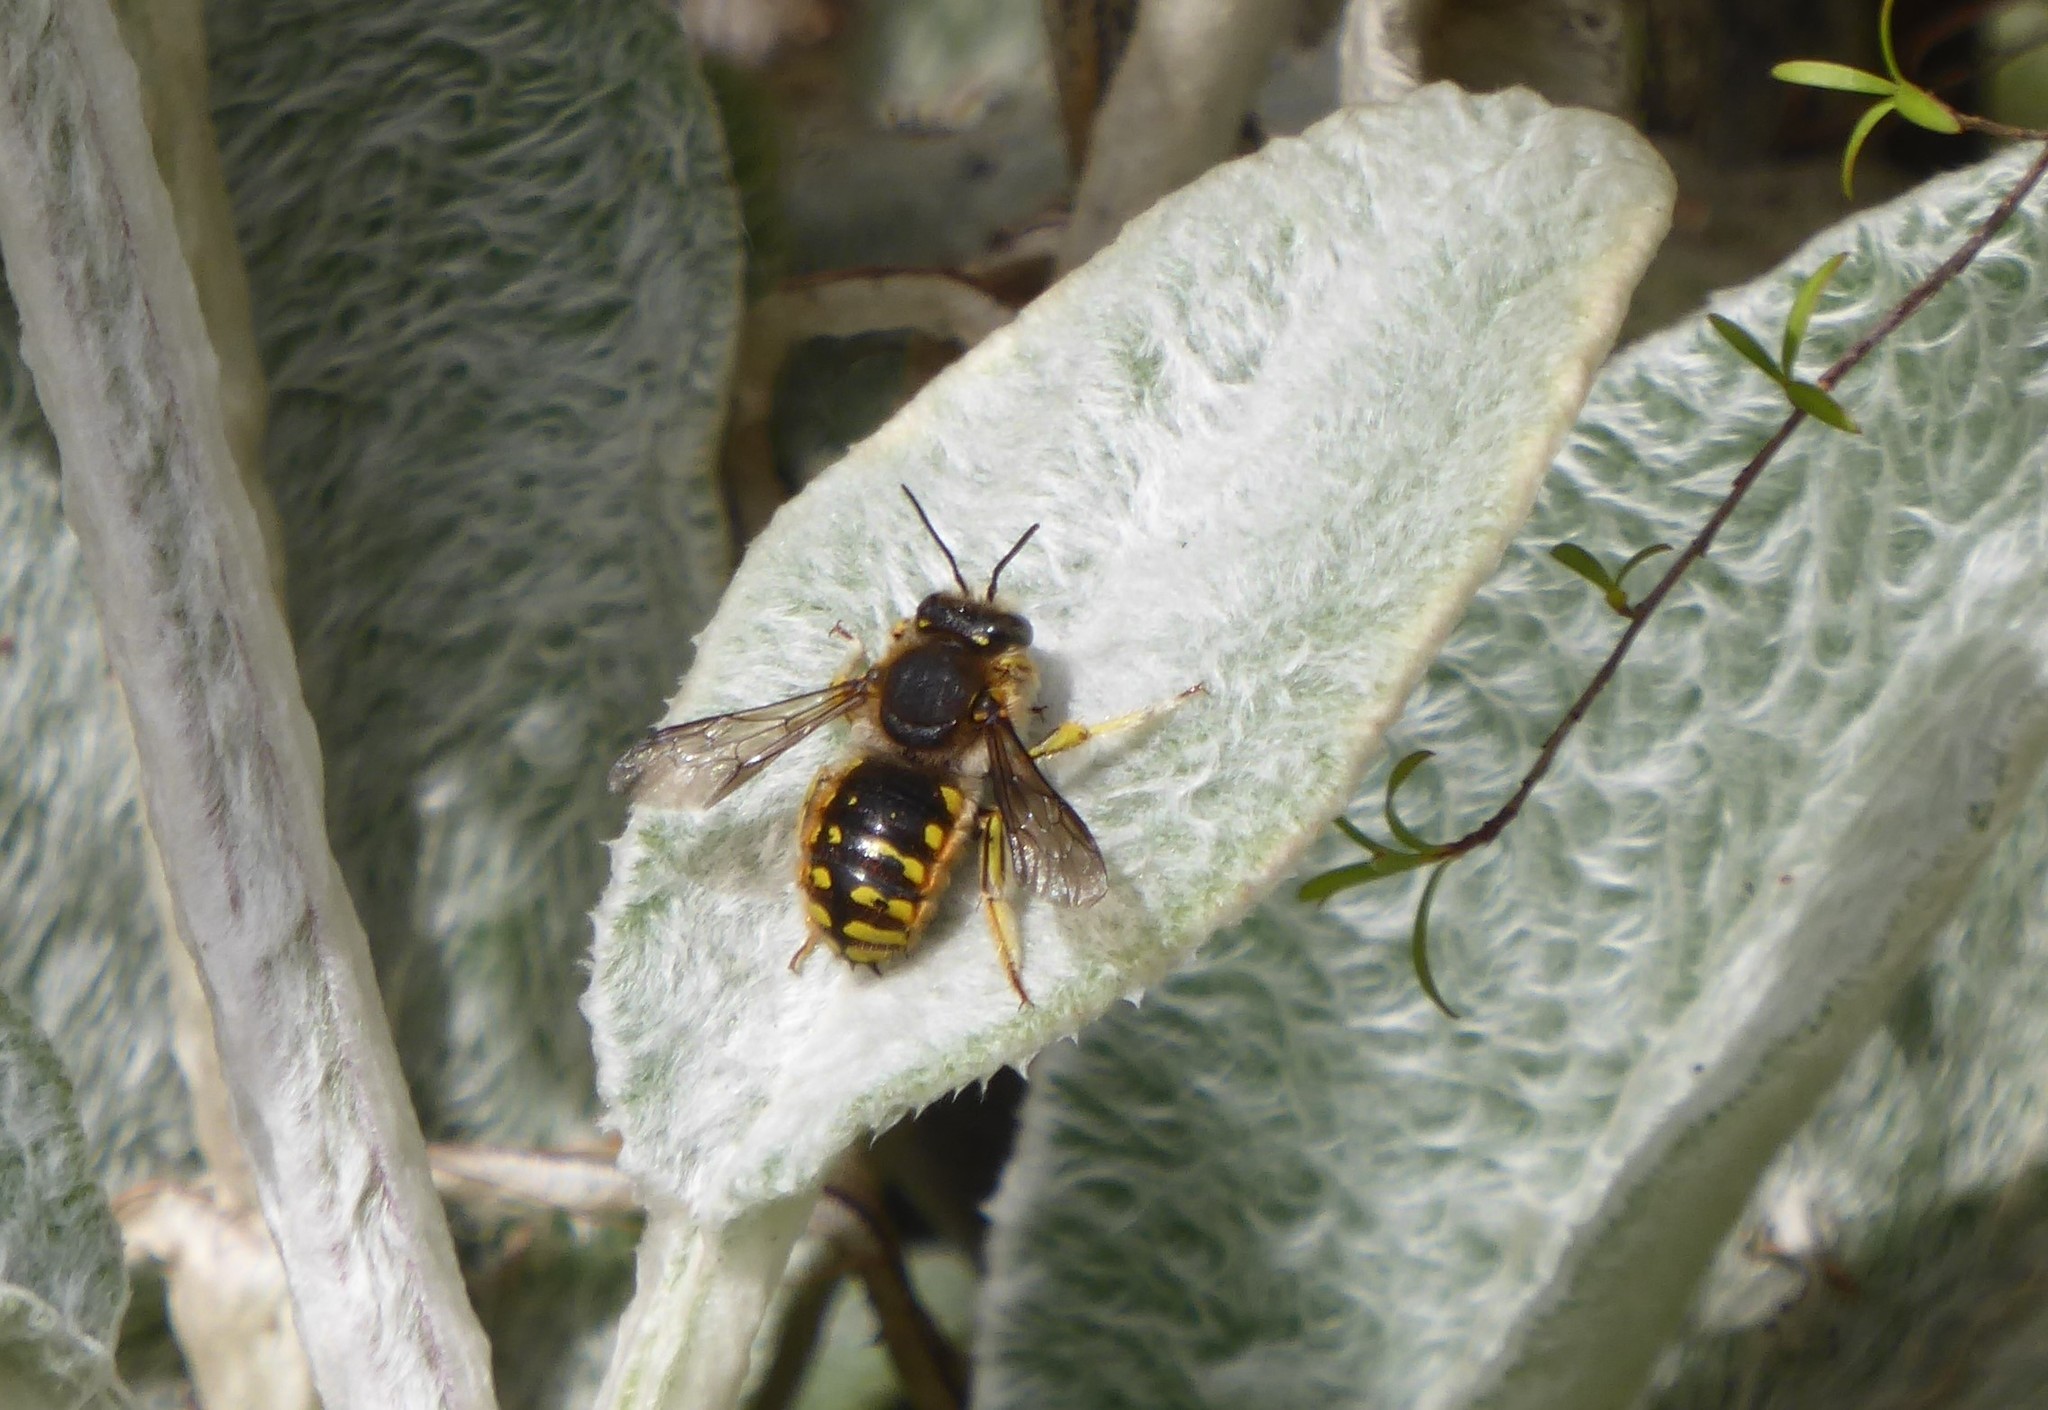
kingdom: Animalia
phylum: Arthropoda
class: Insecta
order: Hymenoptera
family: Megachilidae
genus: Anthidium
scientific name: Anthidium manicatum
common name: Wool carder bee
